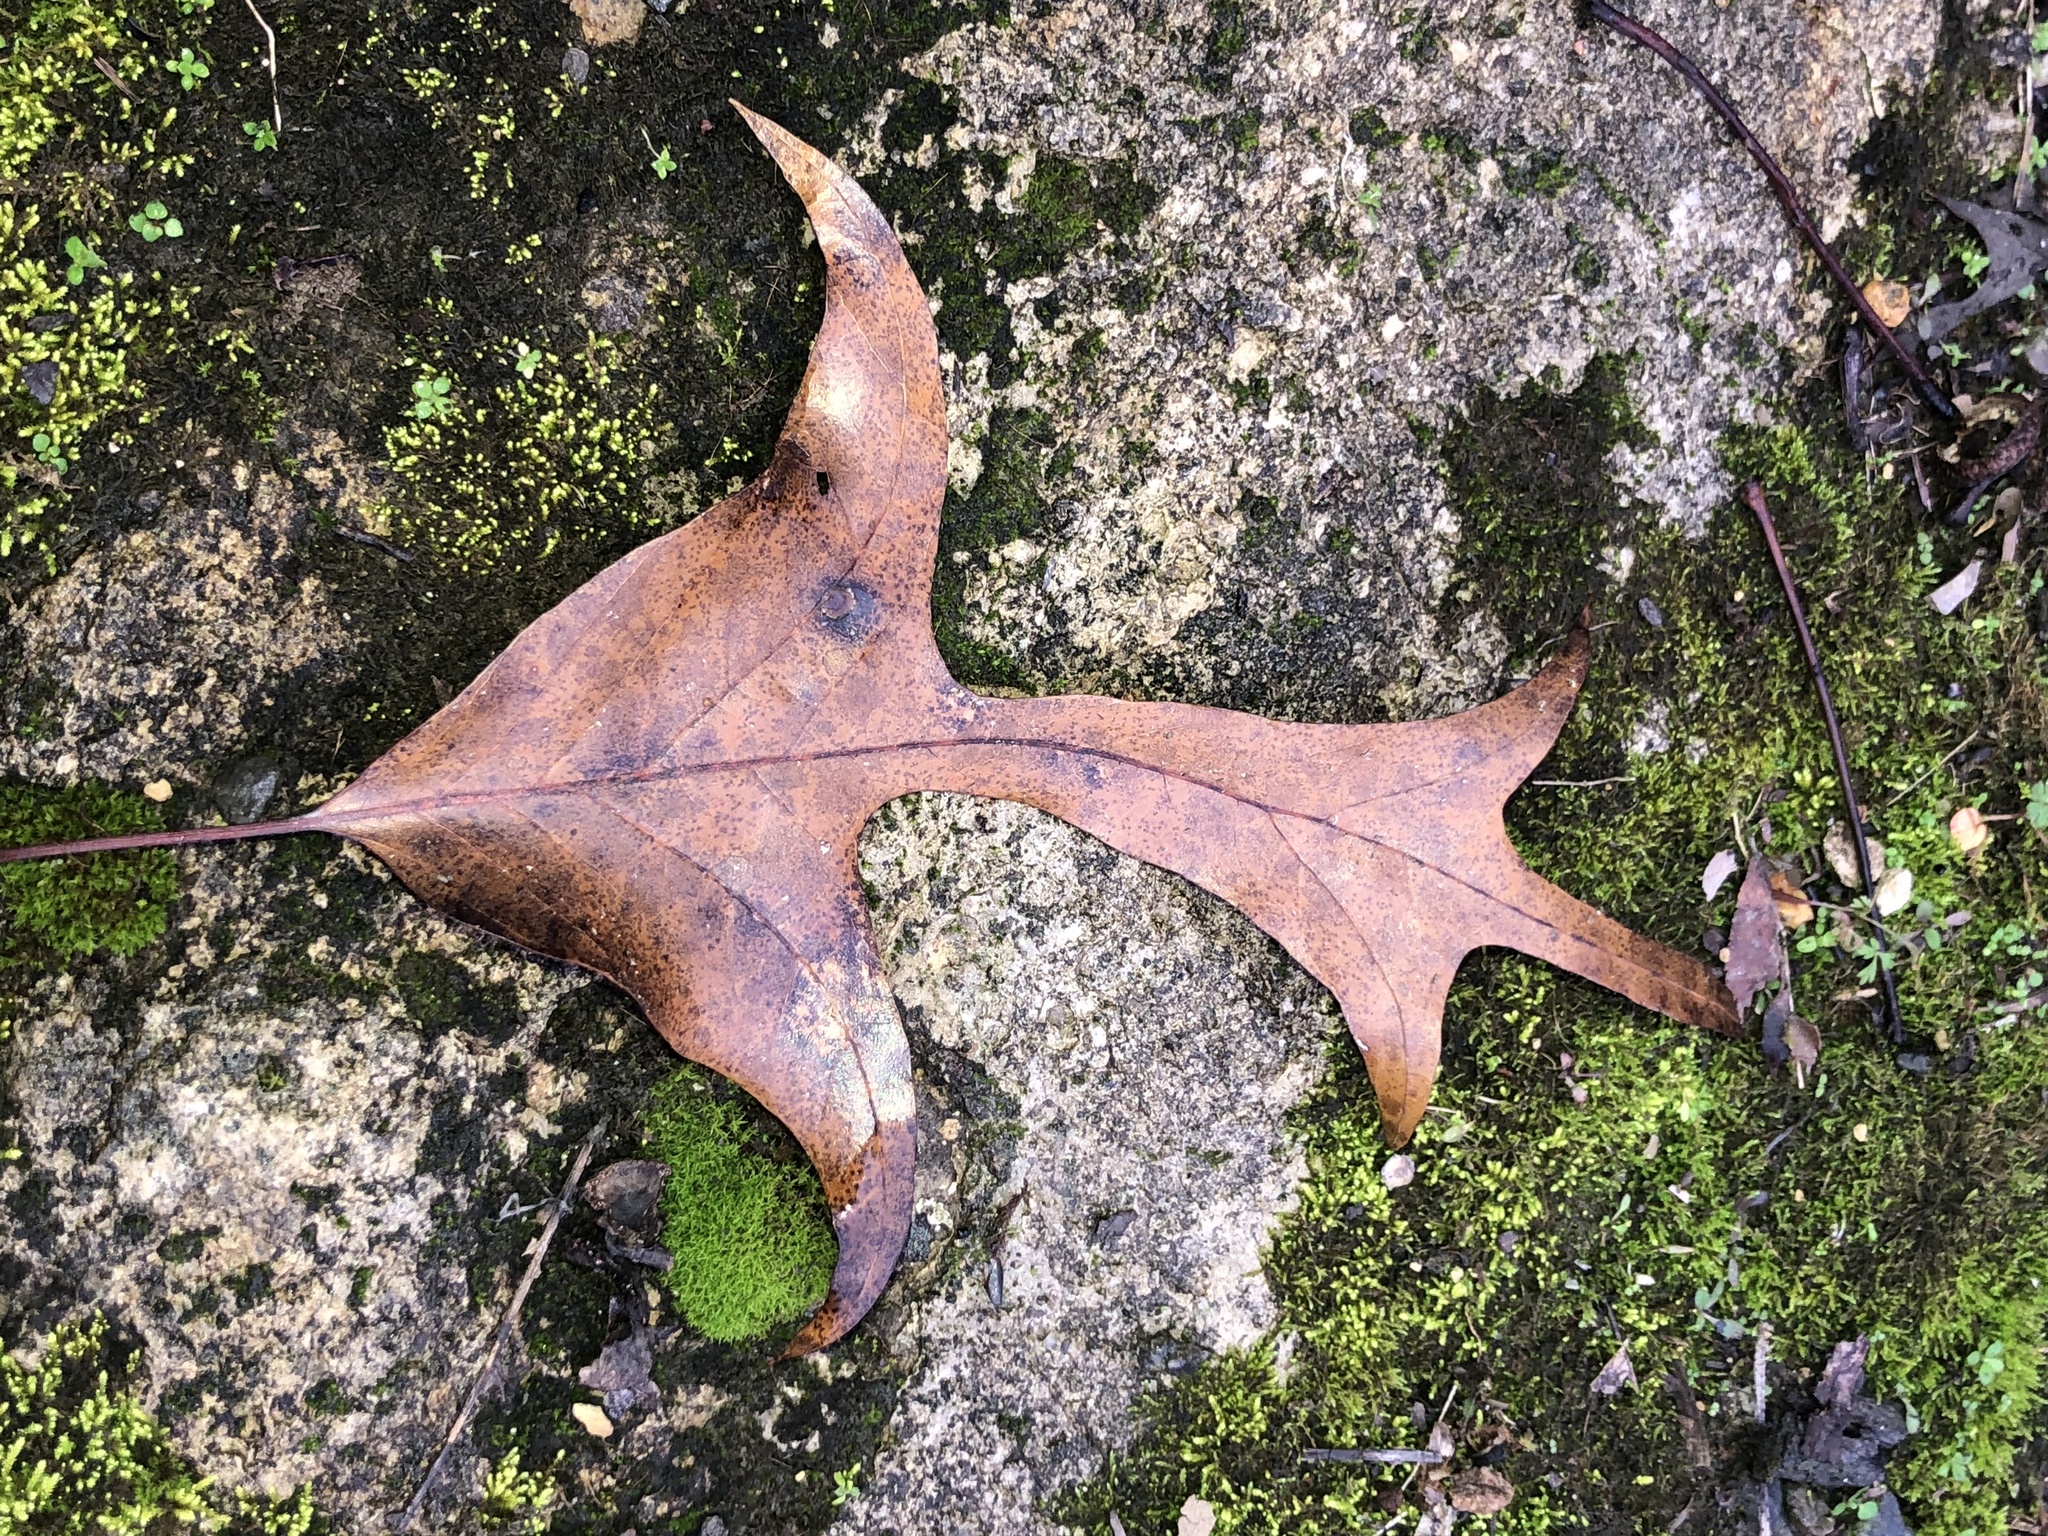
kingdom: Plantae
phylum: Tracheophyta
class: Magnoliopsida
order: Fagales
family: Fagaceae
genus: Quercus
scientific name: Quercus falcata
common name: Southern red oak
